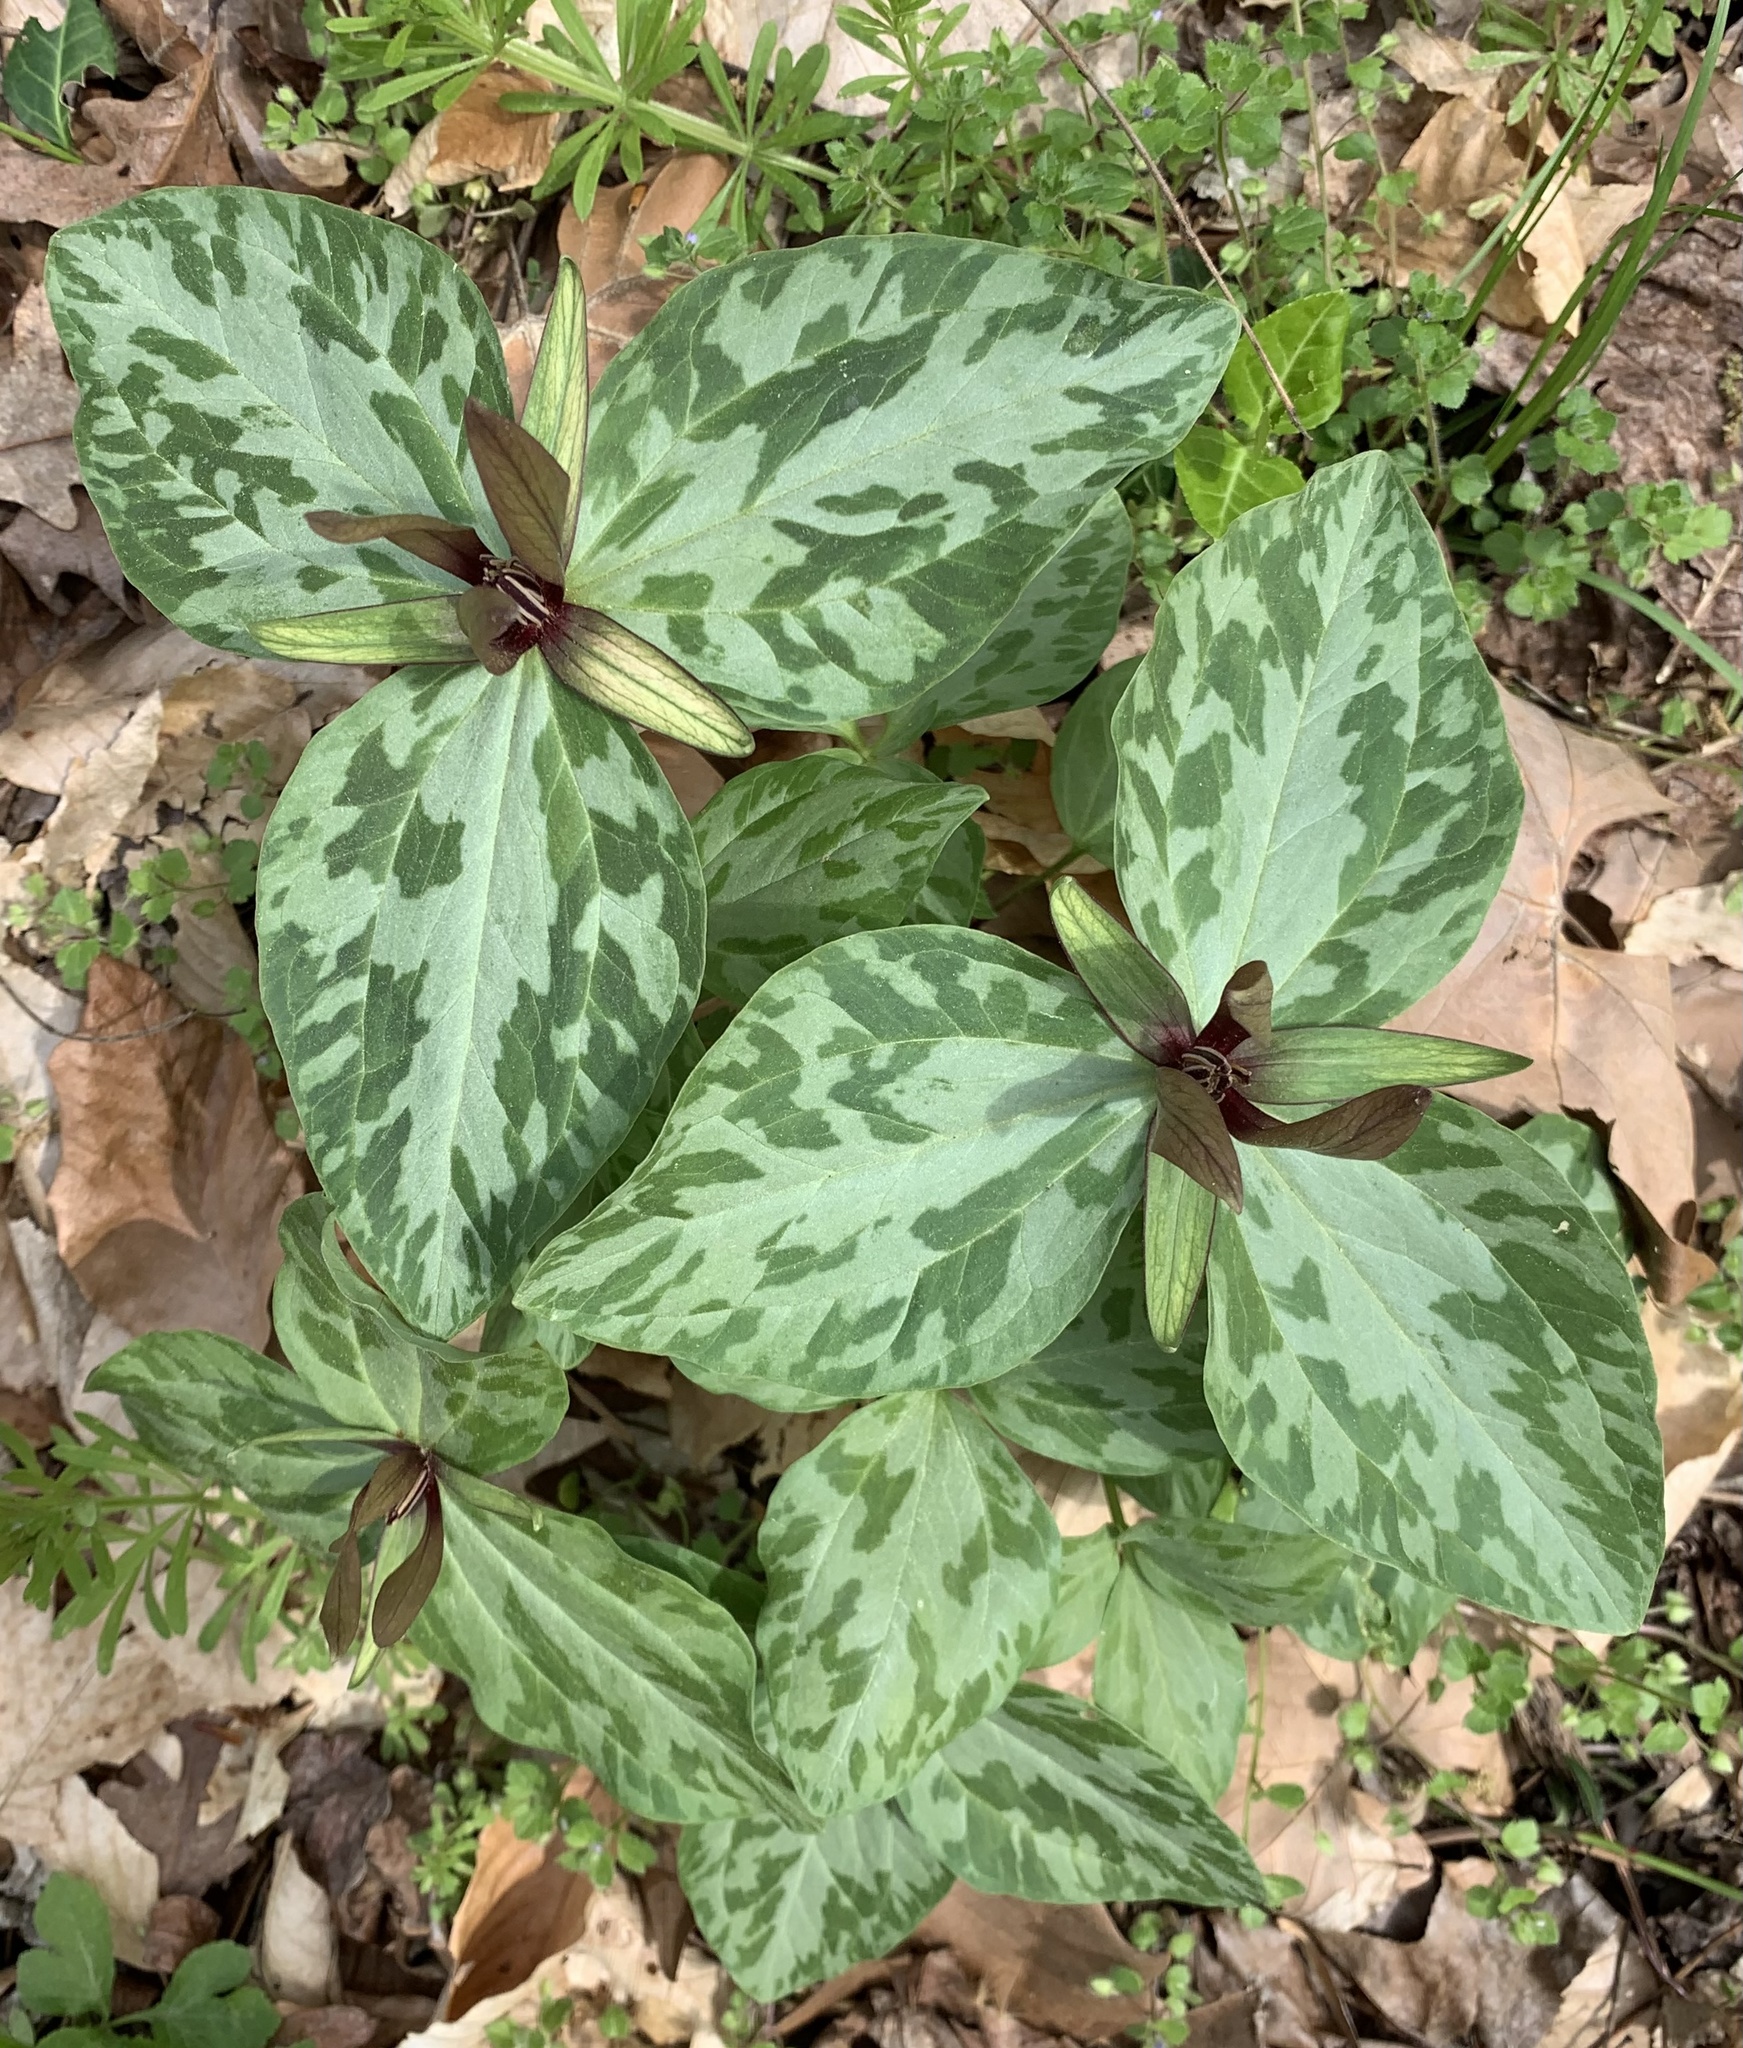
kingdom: Plantae
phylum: Tracheophyta
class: Liliopsida
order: Liliales
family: Melanthiaceae
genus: Trillium
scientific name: Trillium cuneatum
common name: Cuneate trillium
